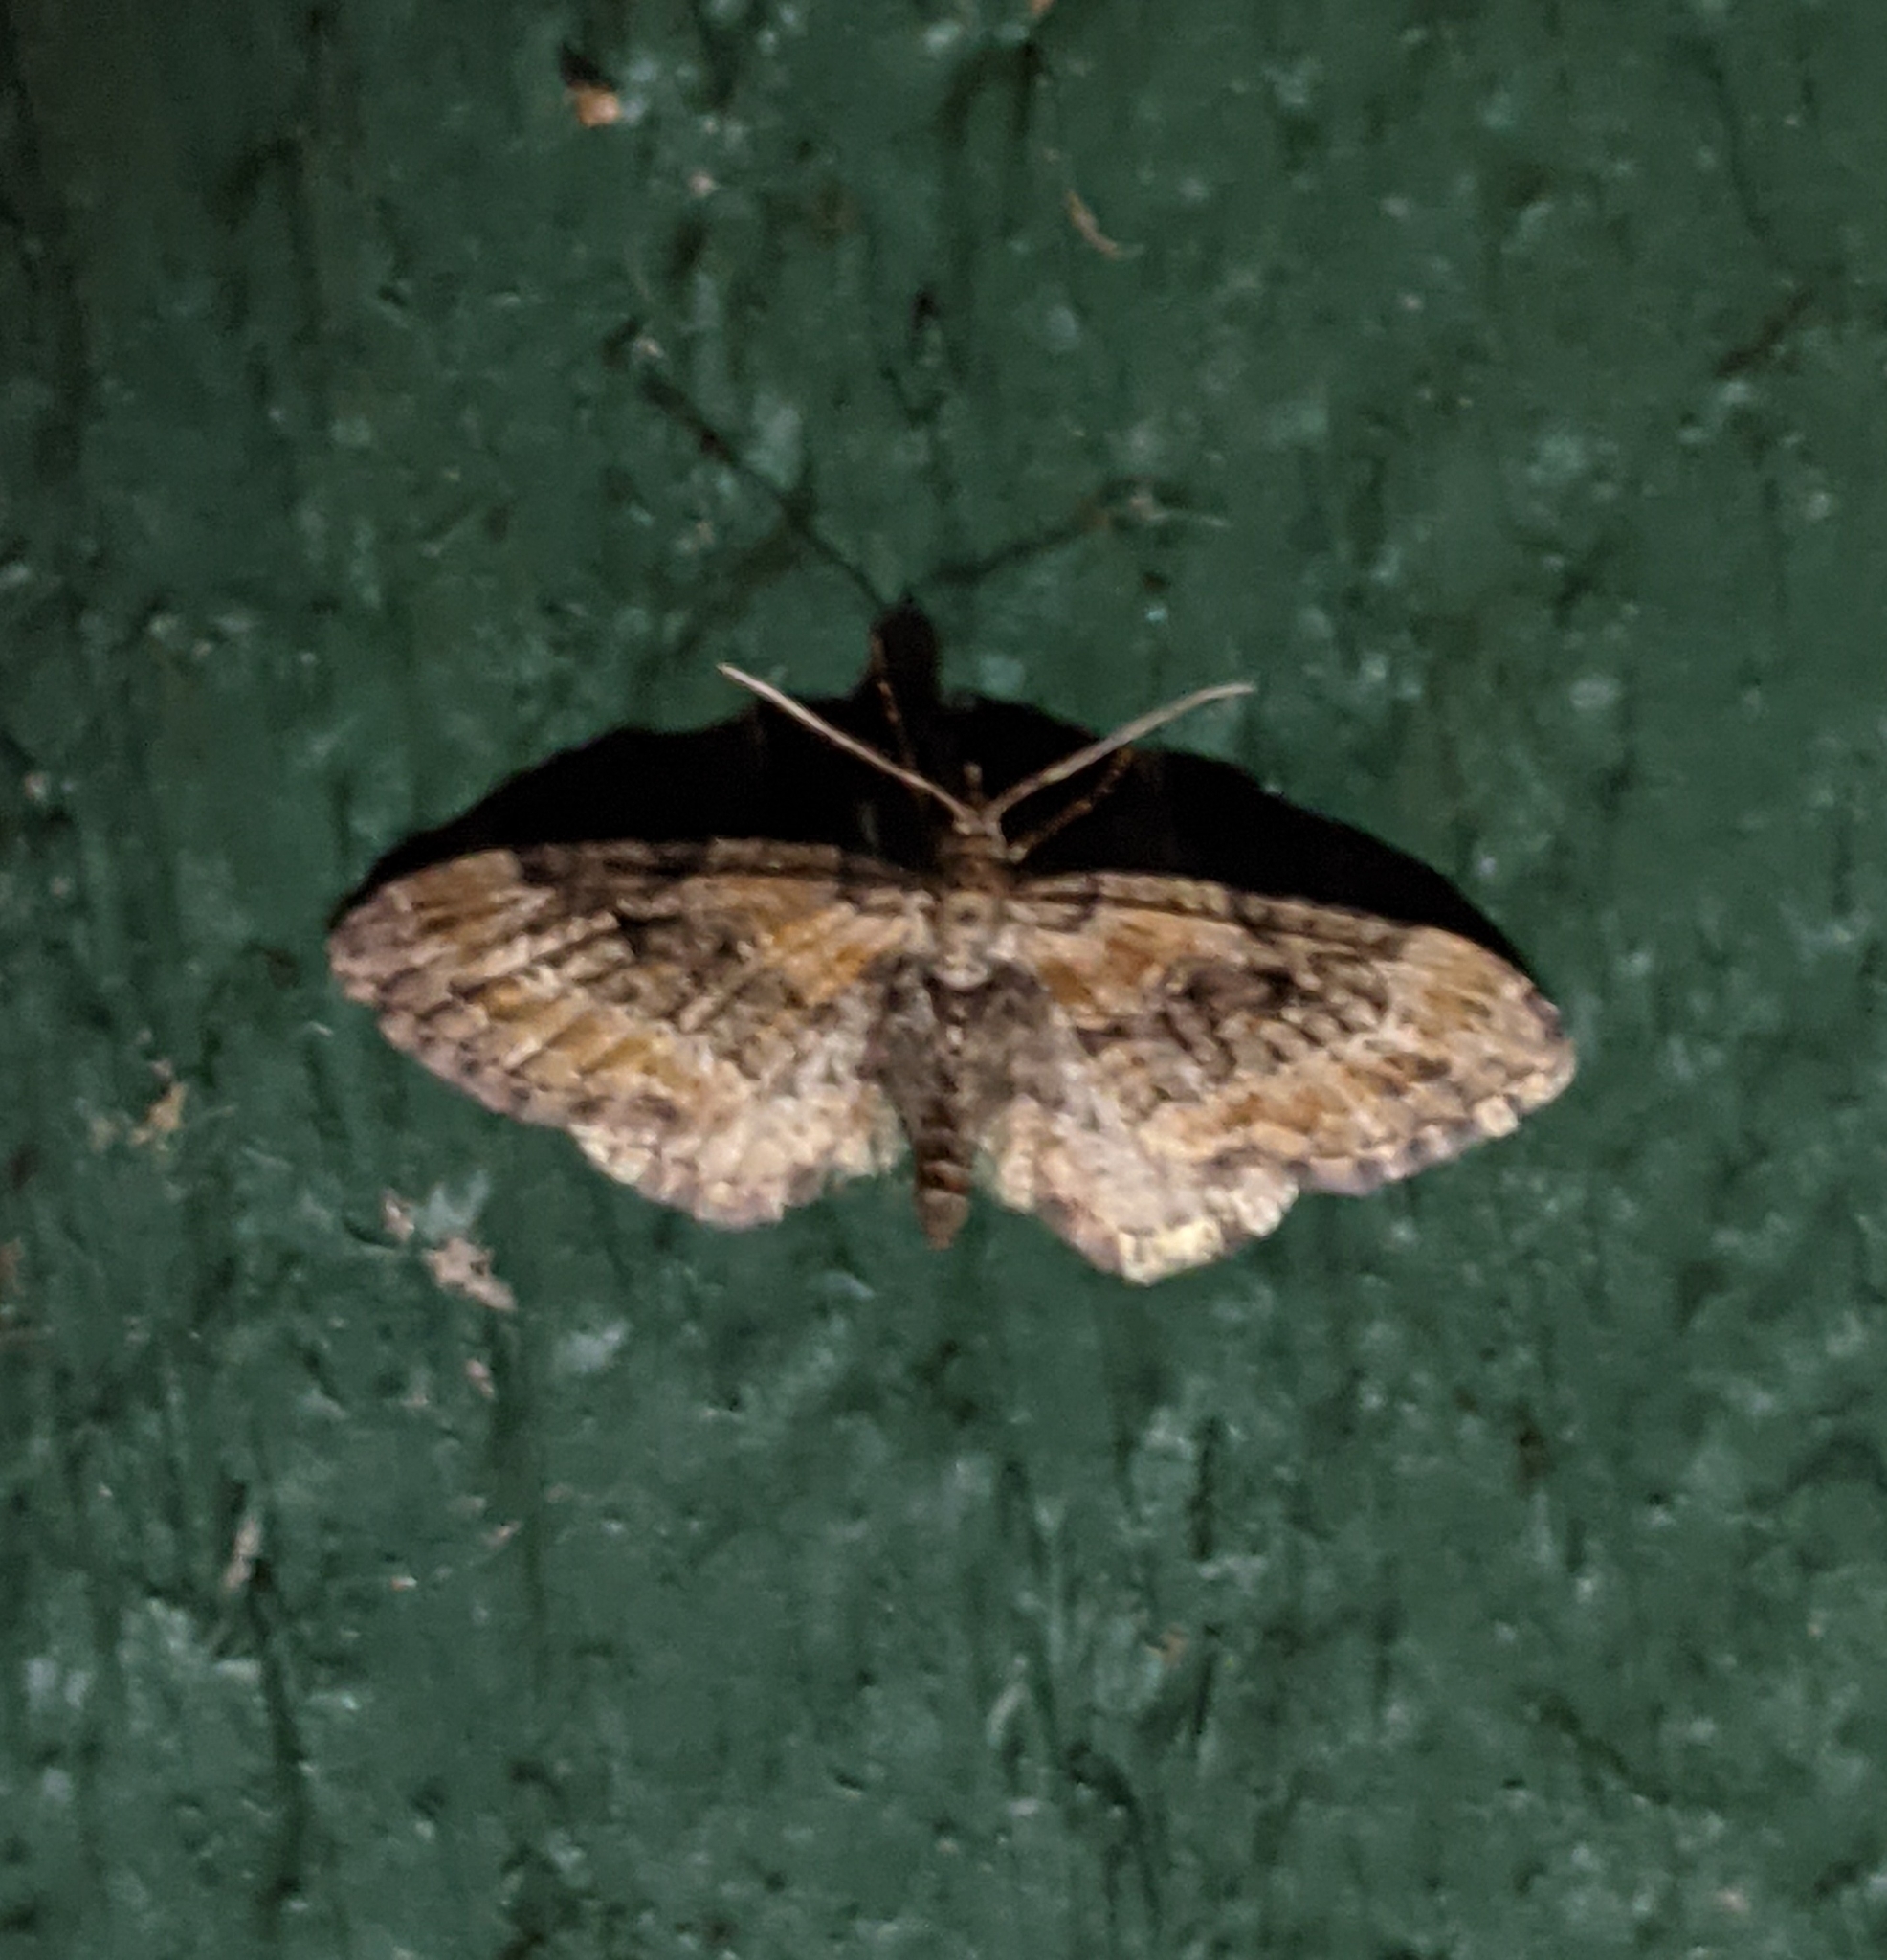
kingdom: Animalia
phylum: Arthropoda
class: Insecta
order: Lepidoptera
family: Geometridae
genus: Eupithecia
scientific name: Eupithecia rotundopuncta
